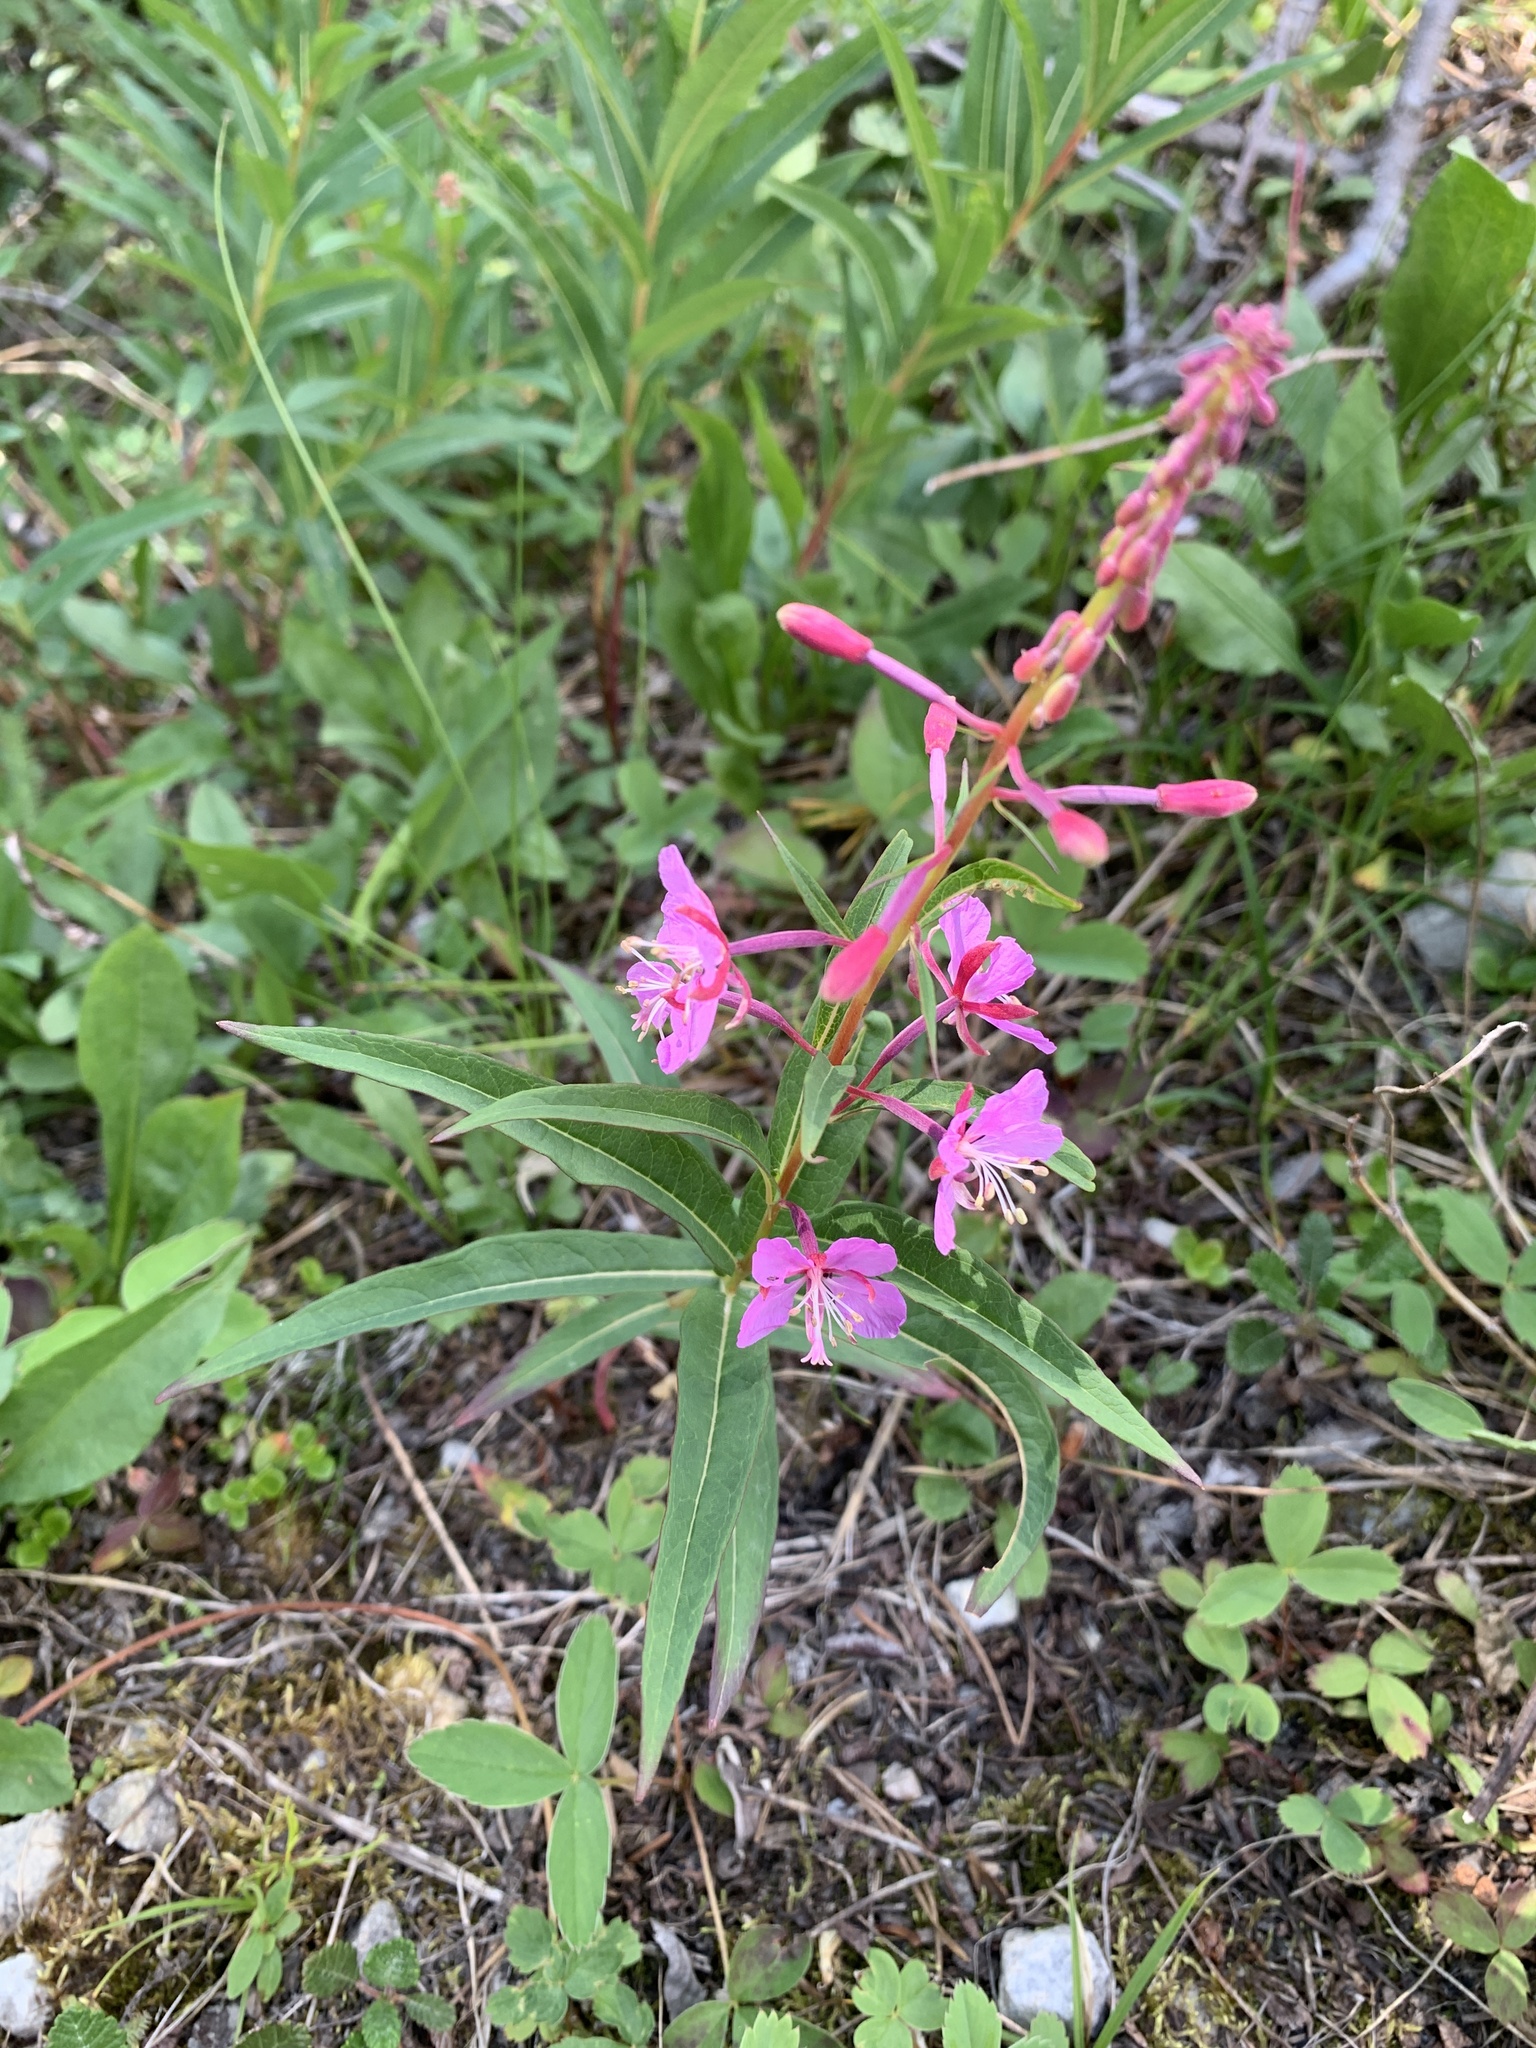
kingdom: Plantae
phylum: Tracheophyta
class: Magnoliopsida
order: Myrtales
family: Onagraceae
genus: Chamaenerion
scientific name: Chamaenerion angustifolium
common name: Fireweed
